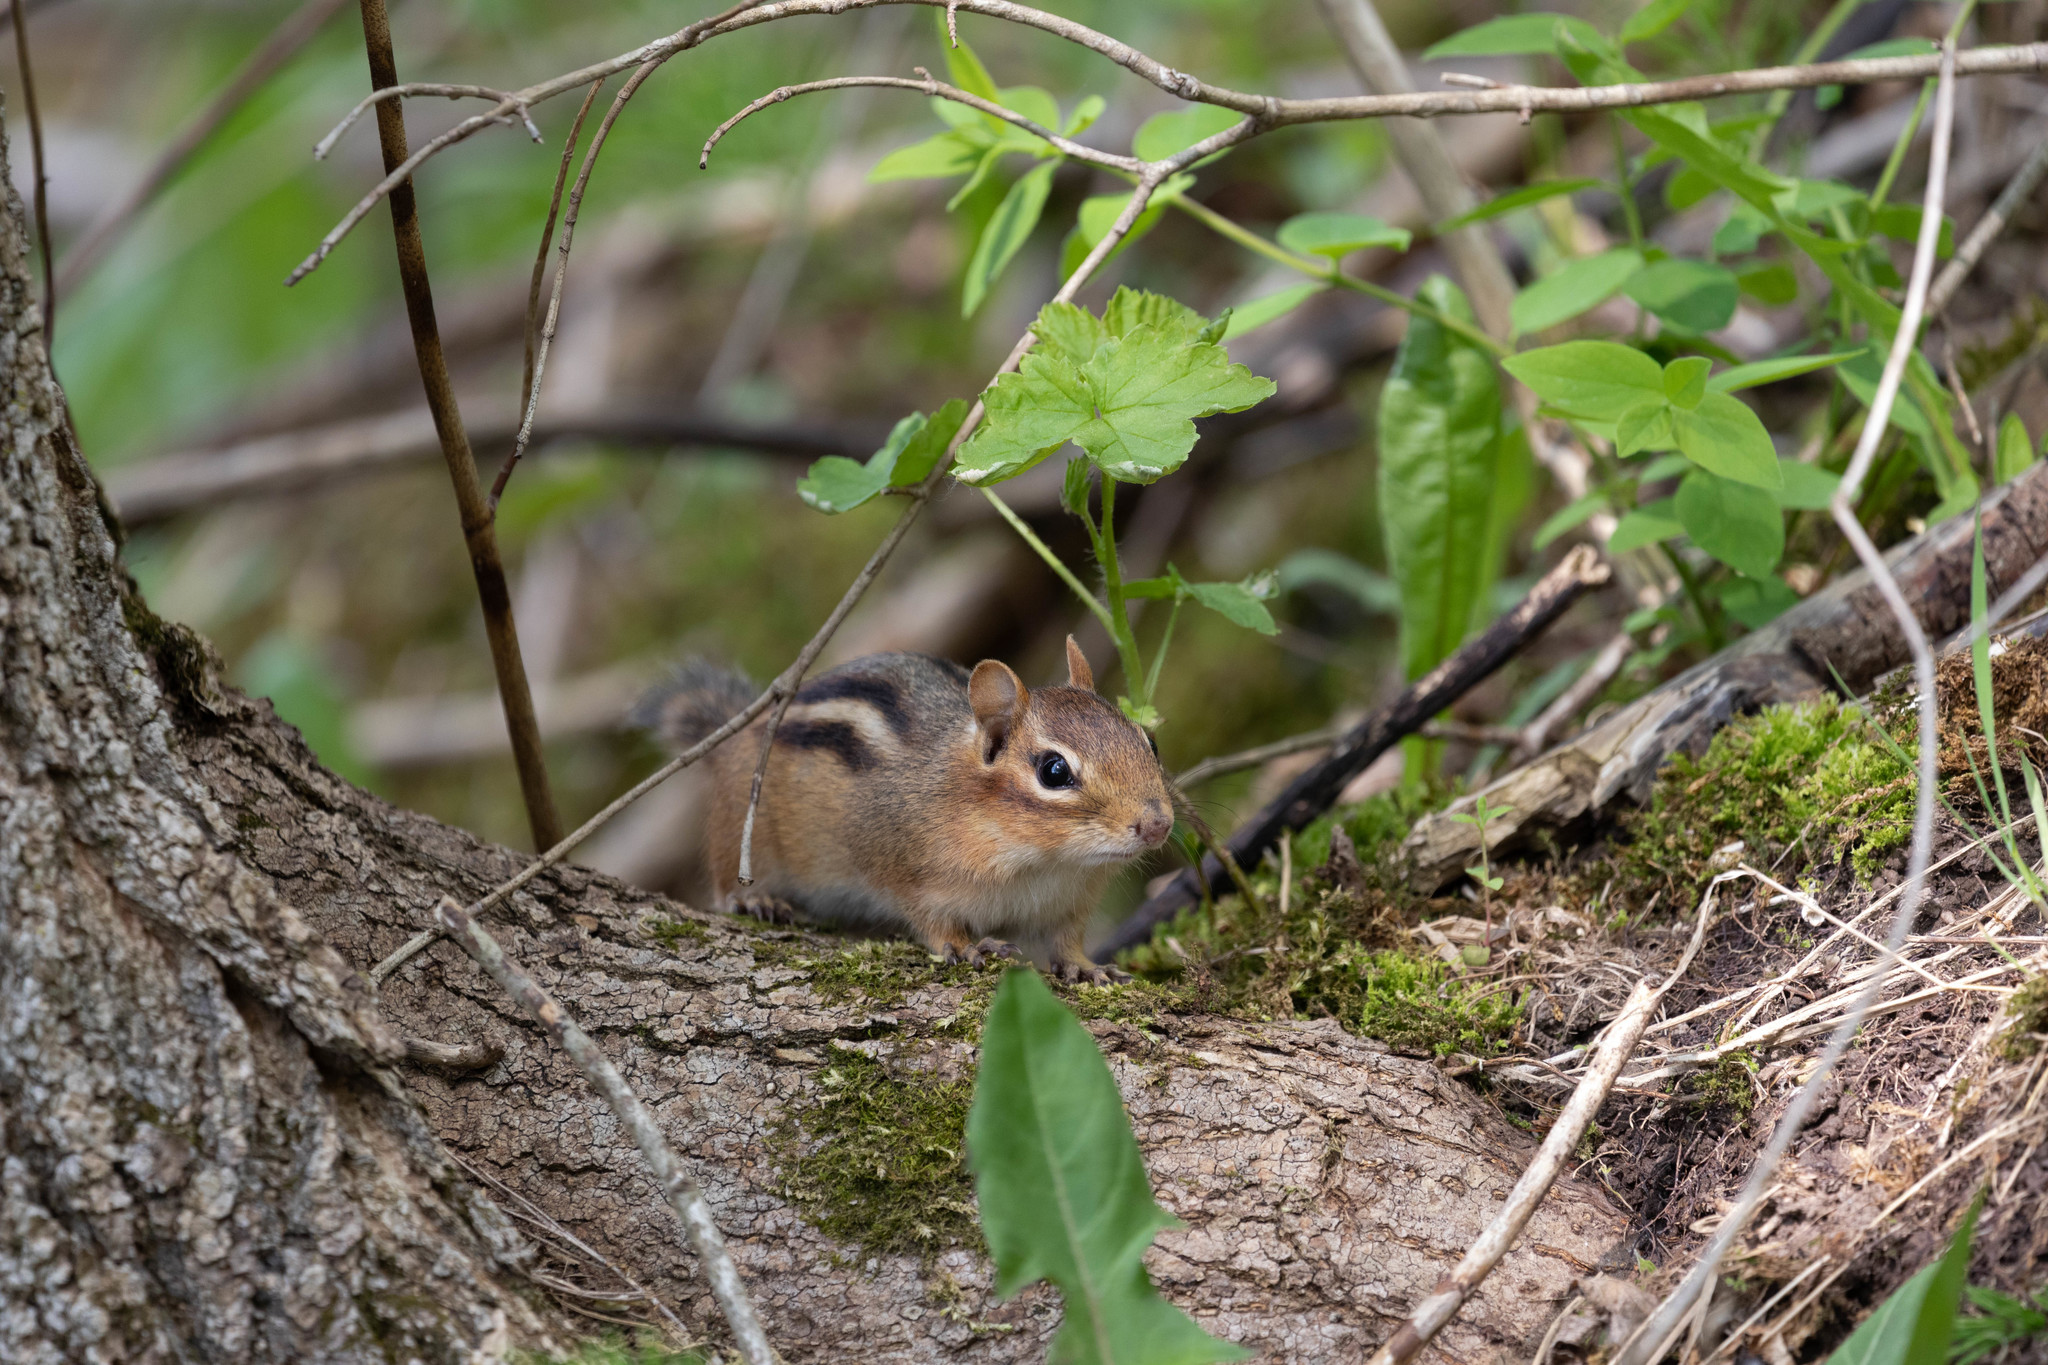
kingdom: Animalia
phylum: Chordata
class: Mammalia
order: Rodentia
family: Sciuridae
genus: Tamias
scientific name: Tamias striatus
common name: Eastern chipmunk
